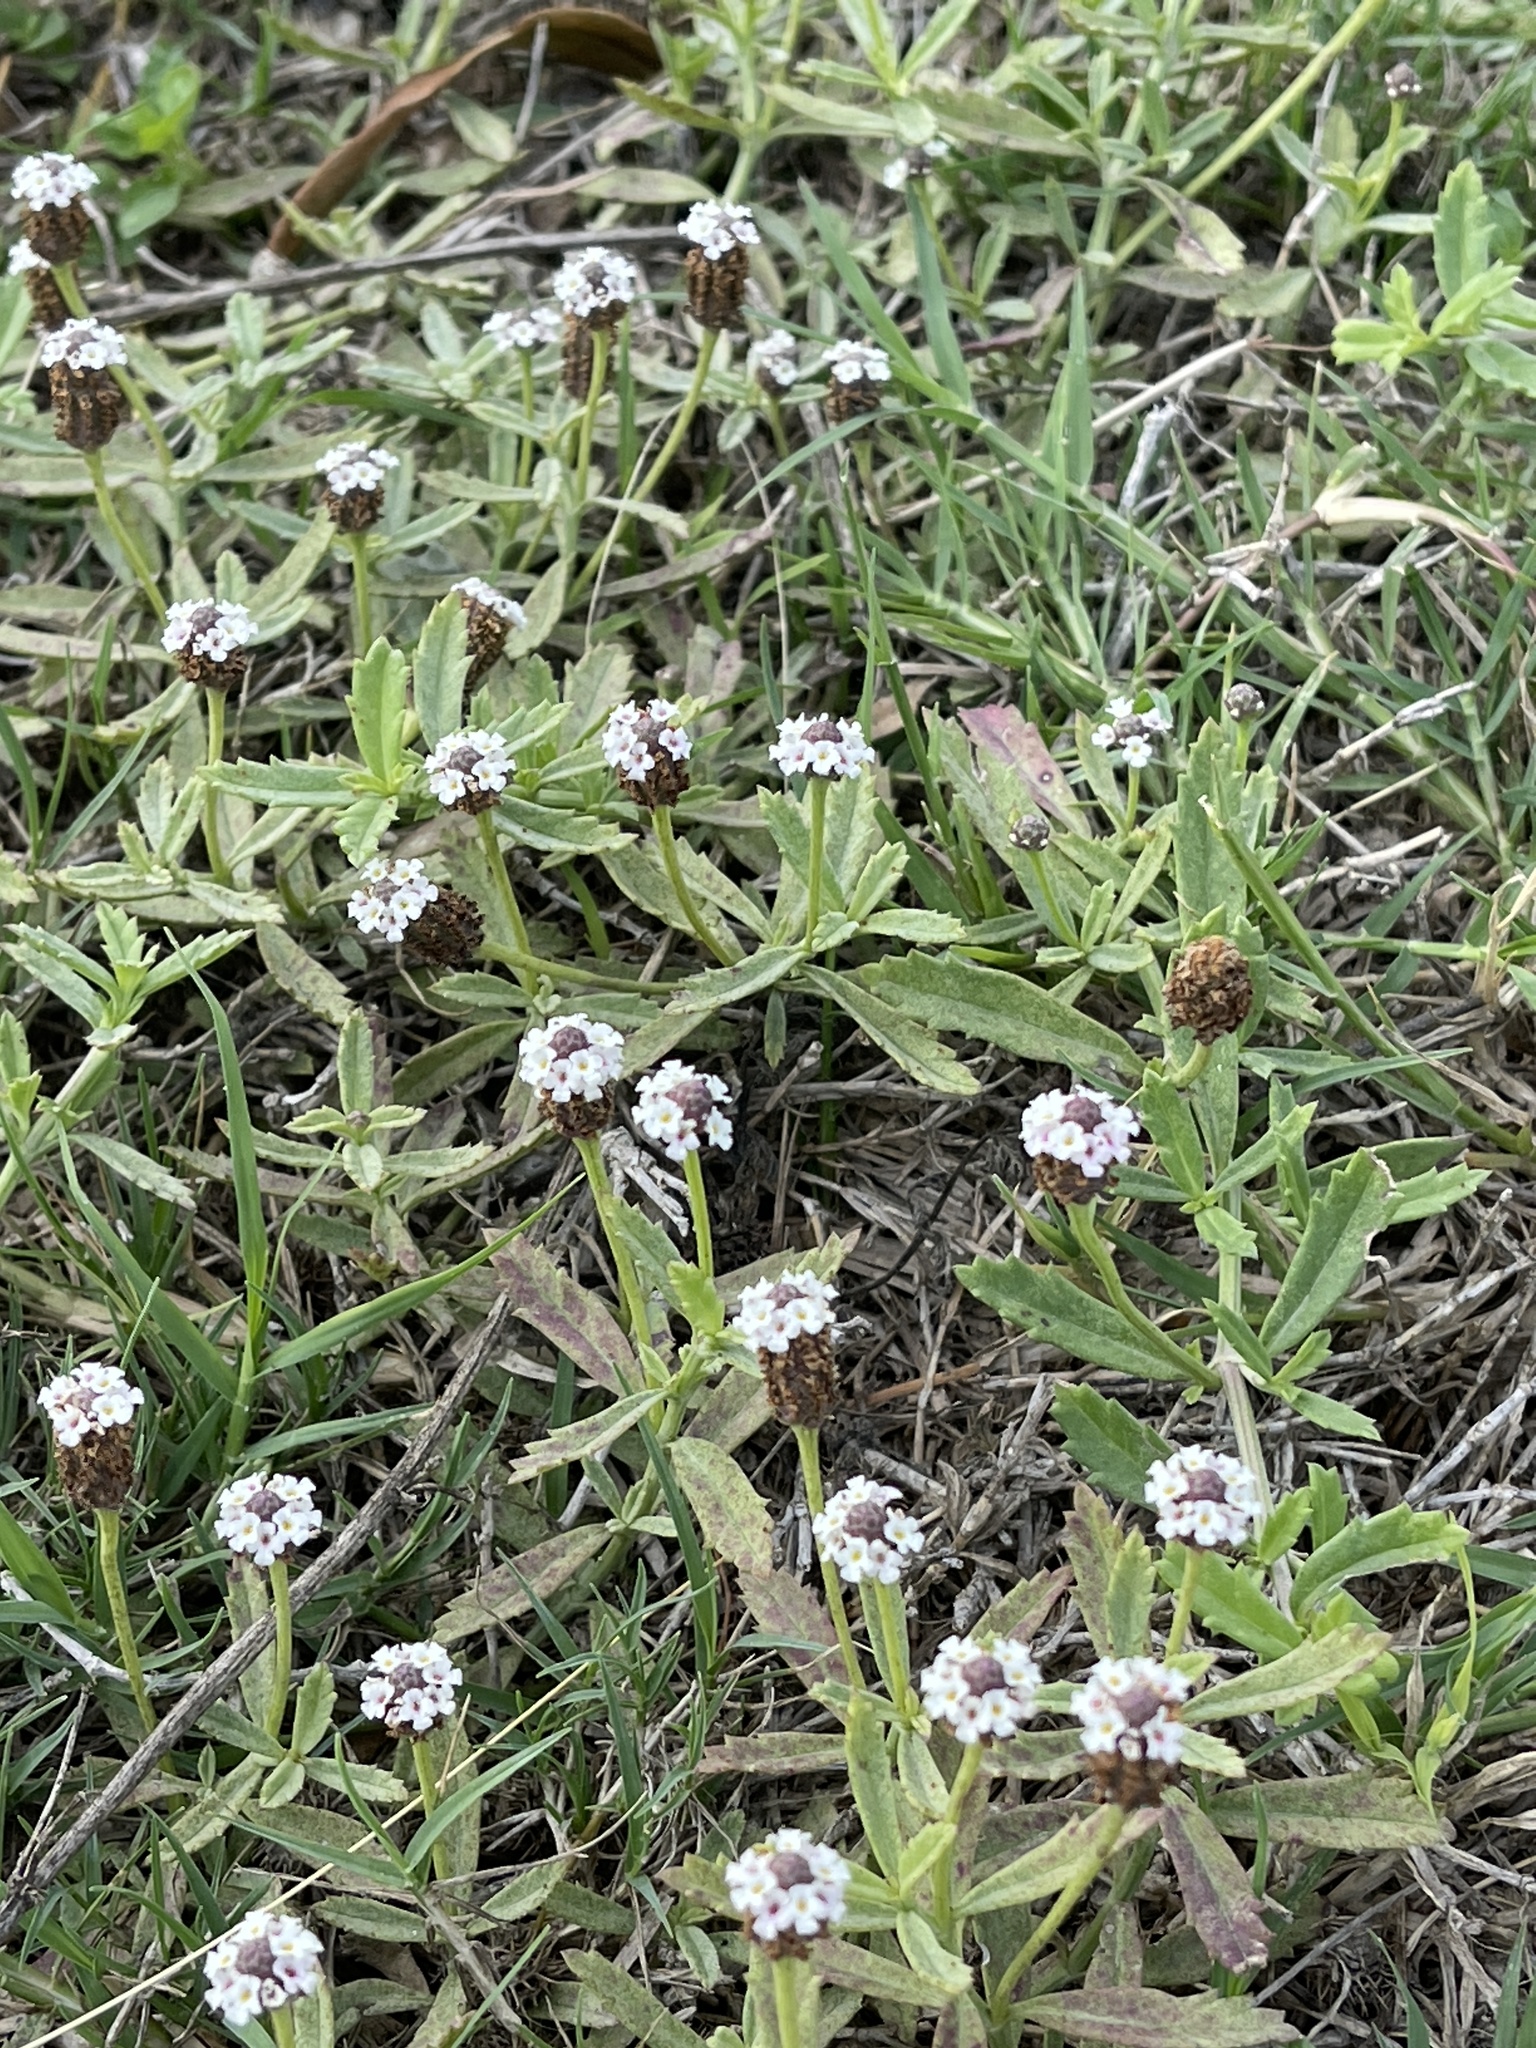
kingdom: Plantae
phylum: Tracheophyta
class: Magnoliopsida
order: Lamiales
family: Verbenaceae
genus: Phyla
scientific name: Phyla nodiflora
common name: Frogfruit
